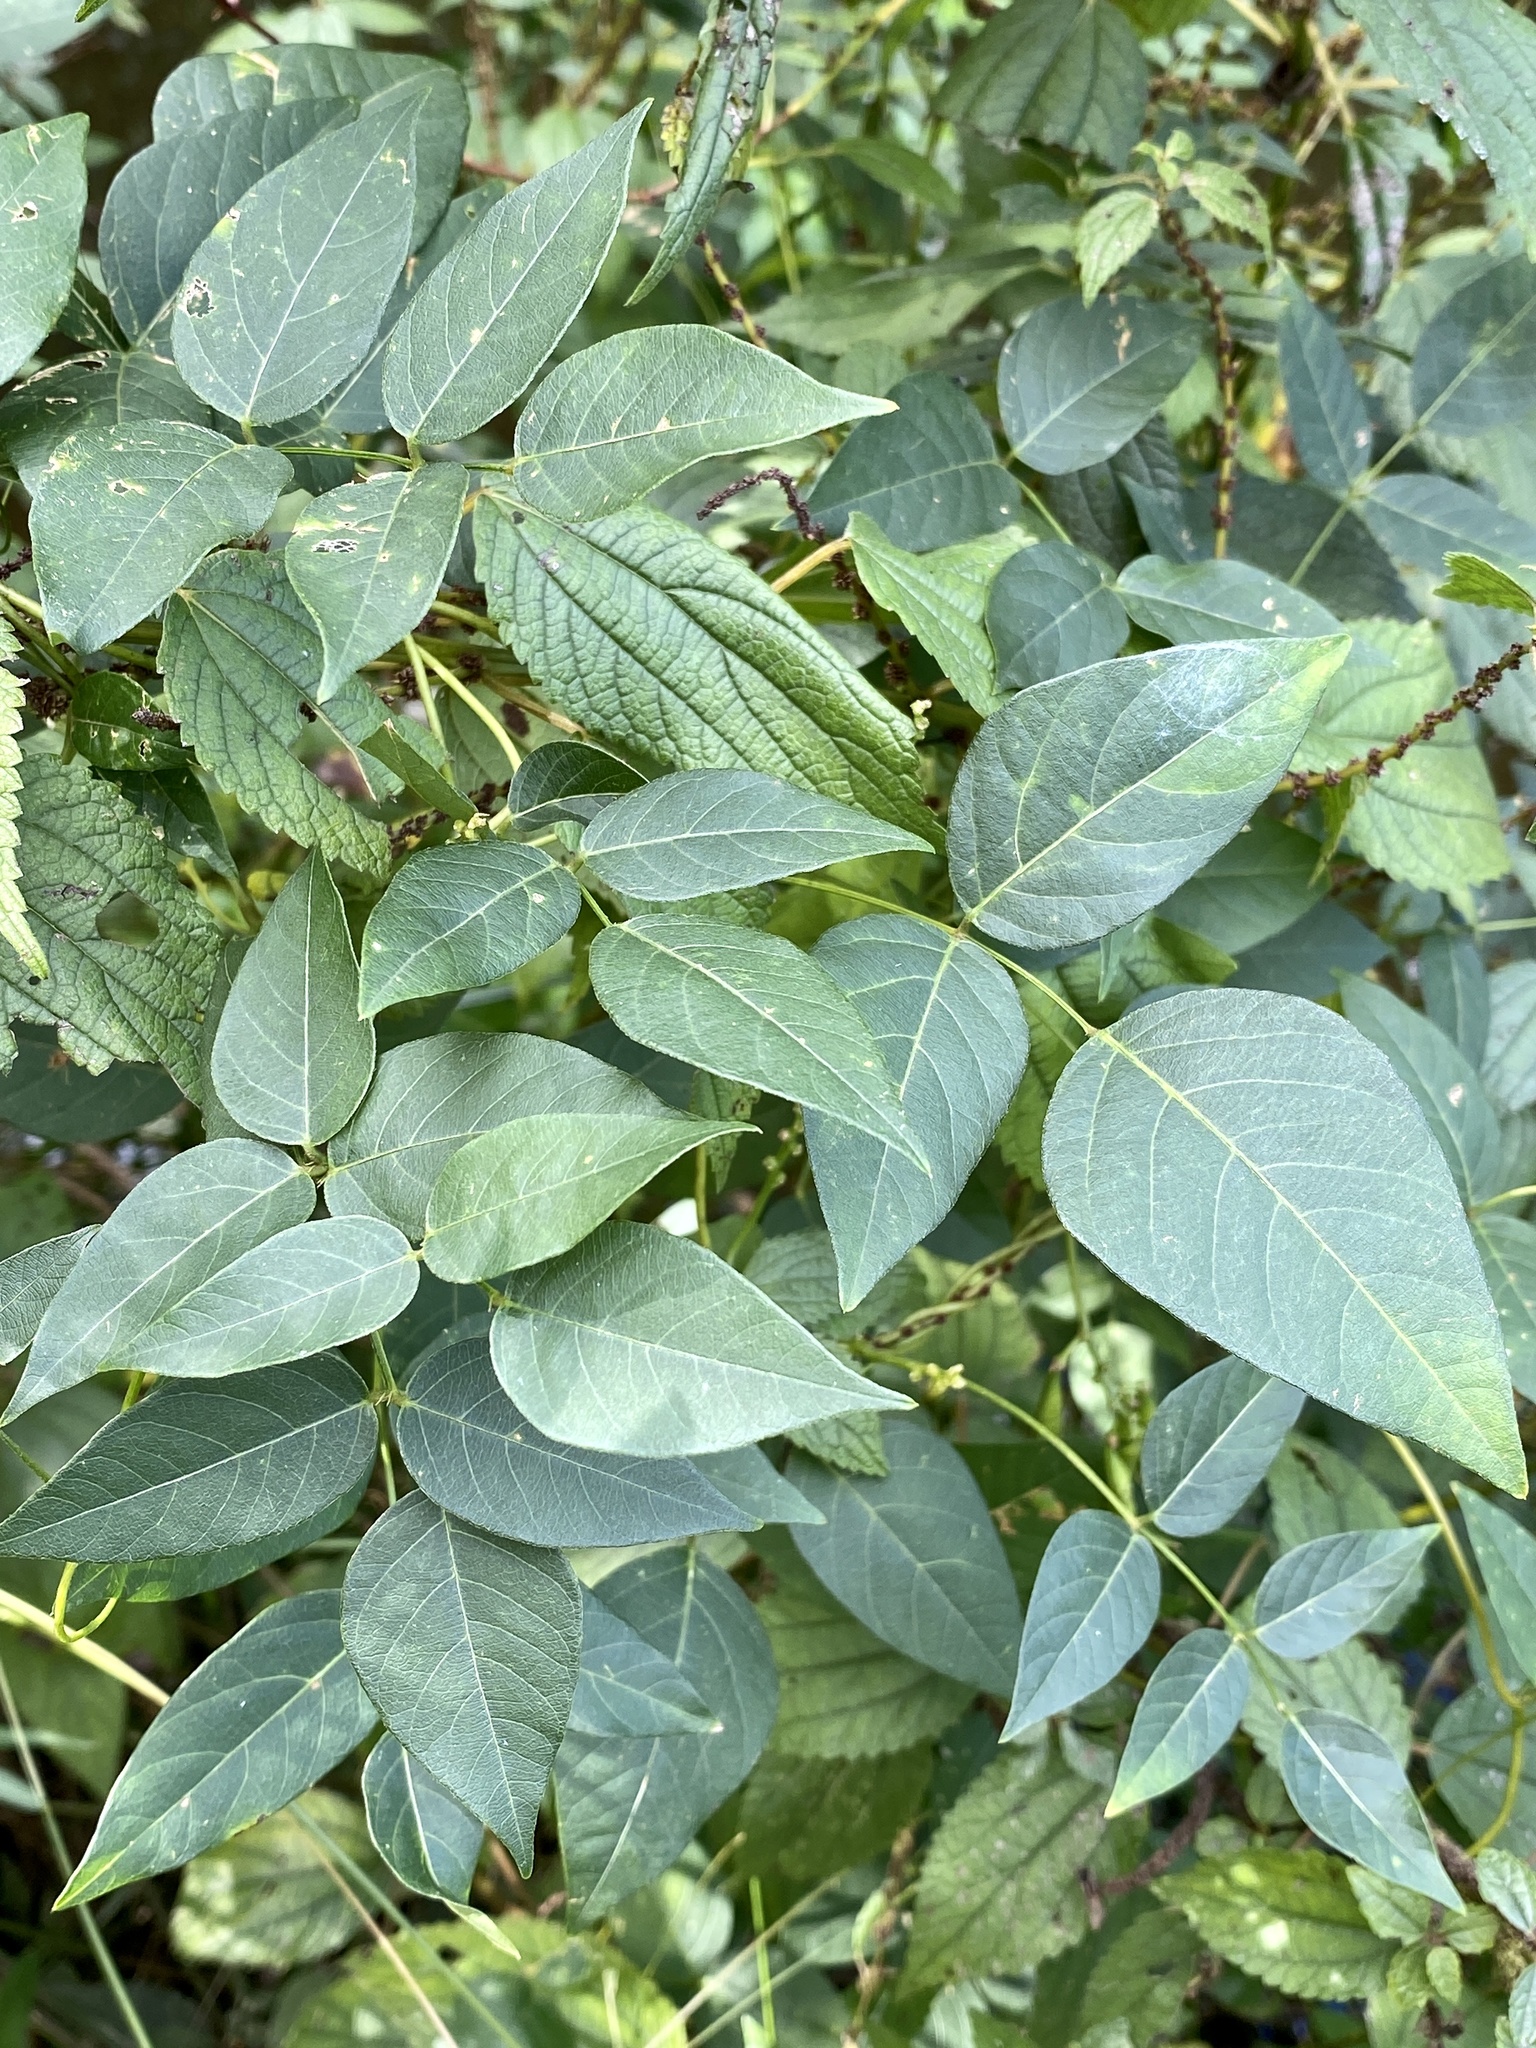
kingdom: Plantae
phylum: Tracheophyta
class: Magnoliopsida
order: Fabales
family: Fabaceae
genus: Apios
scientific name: Apios americana
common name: American potato-bean
